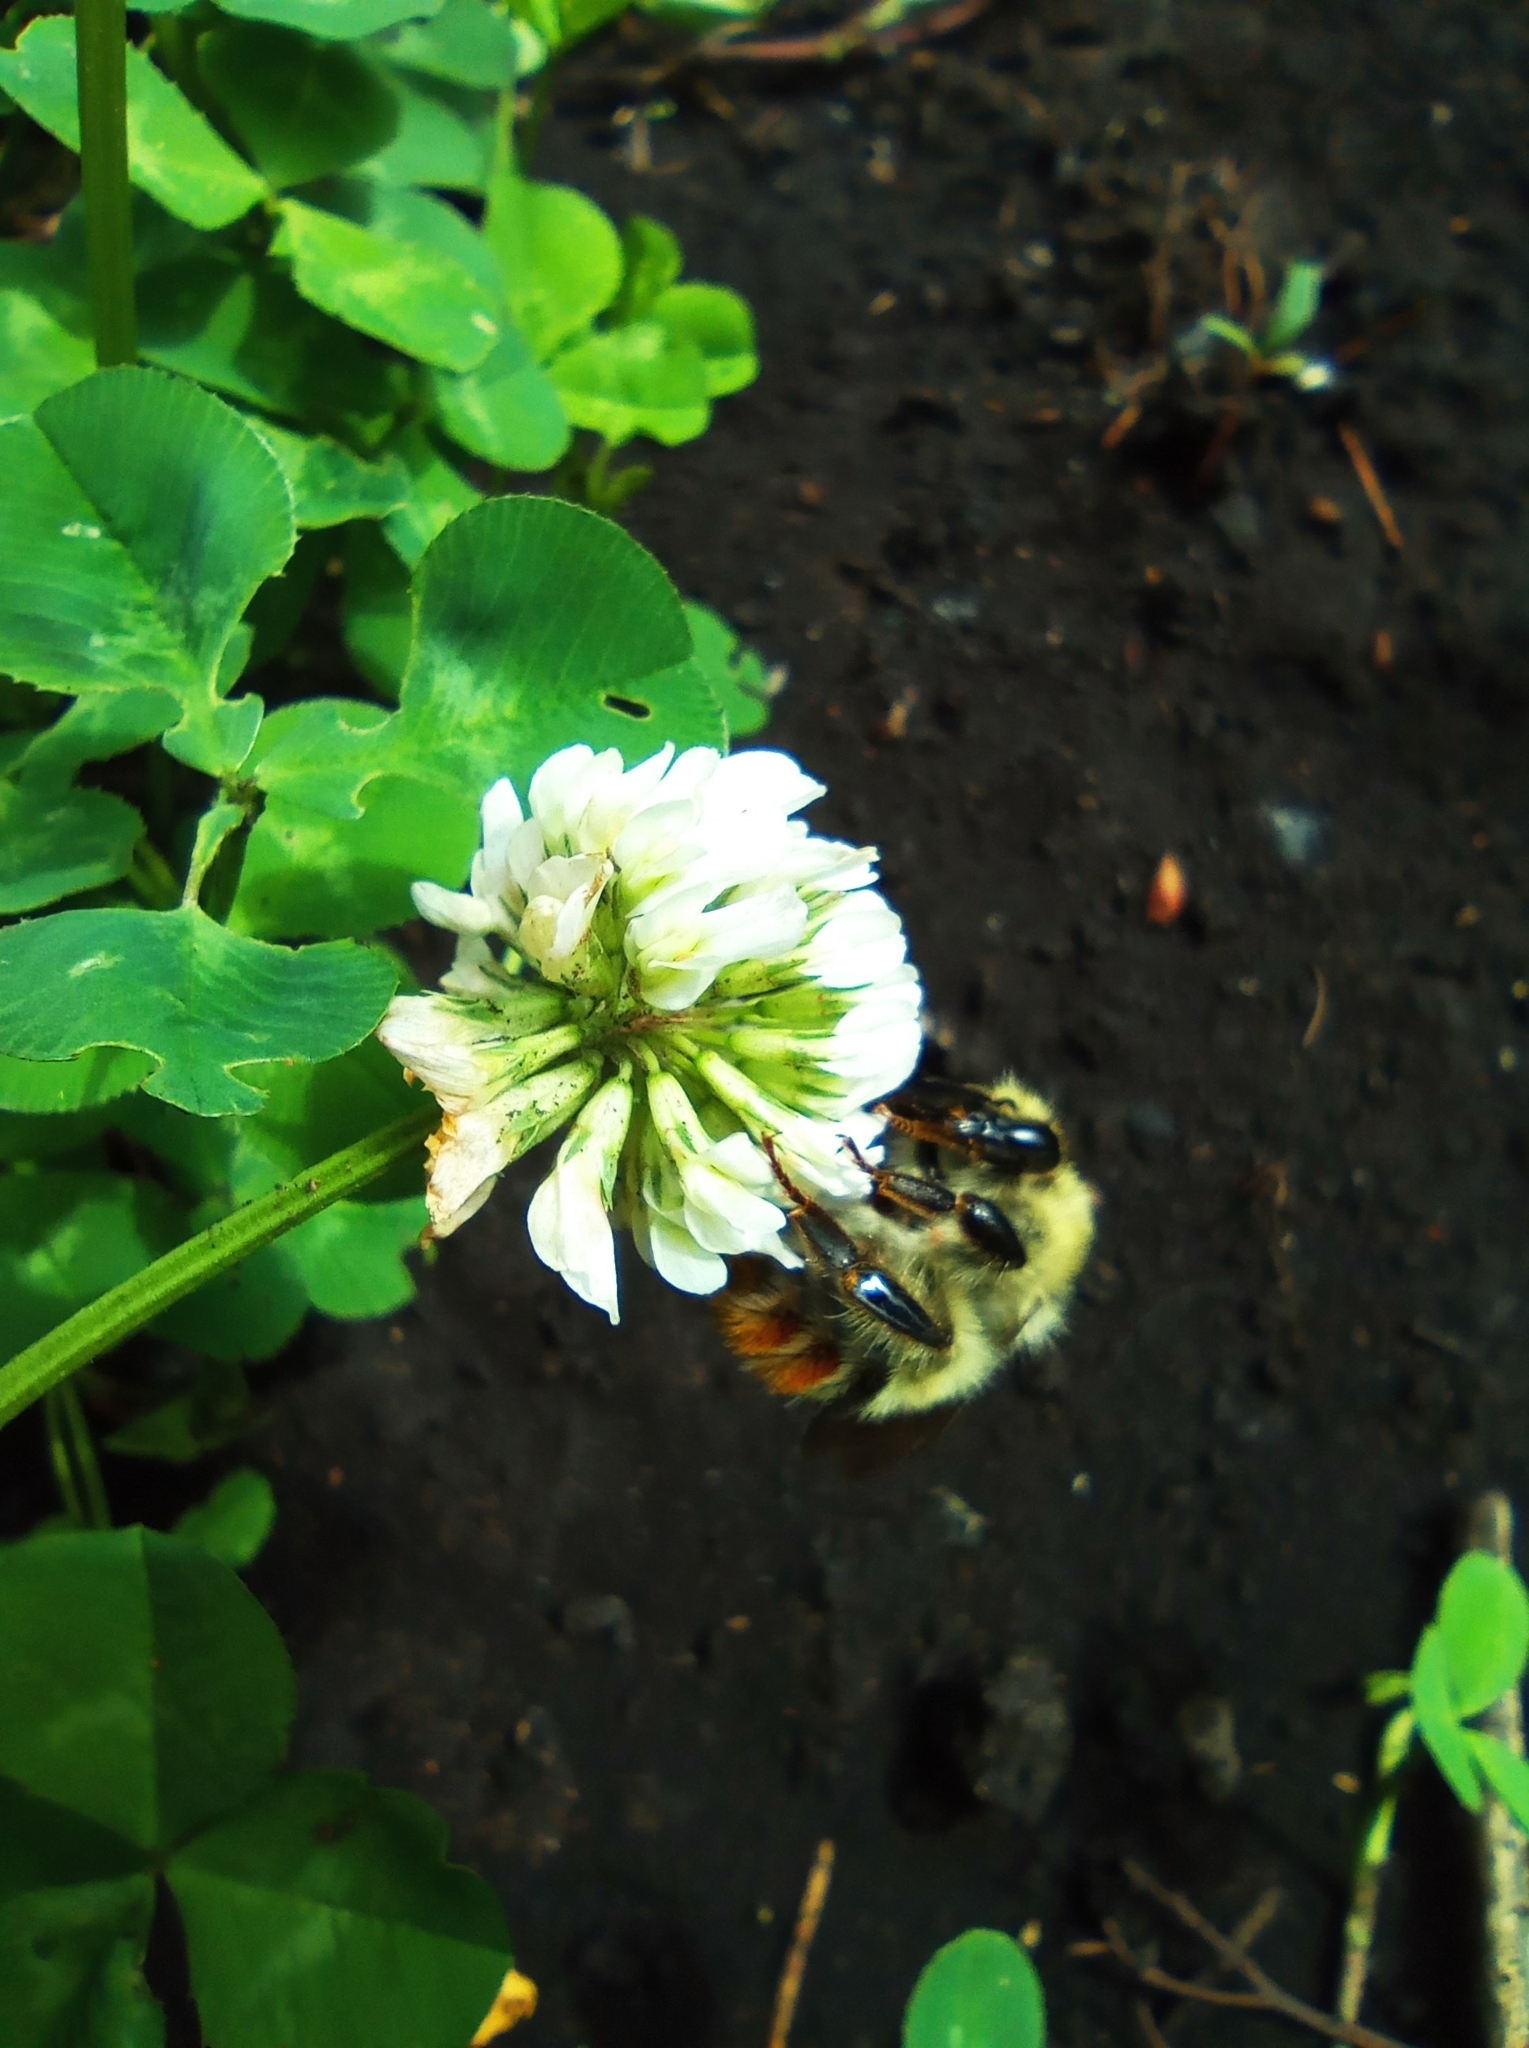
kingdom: Animalia
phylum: Arthropoda
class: Insecta
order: Hymenoptera
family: Apidae
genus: Bombus
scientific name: Bombus sylvarum
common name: Shrill carder bee
